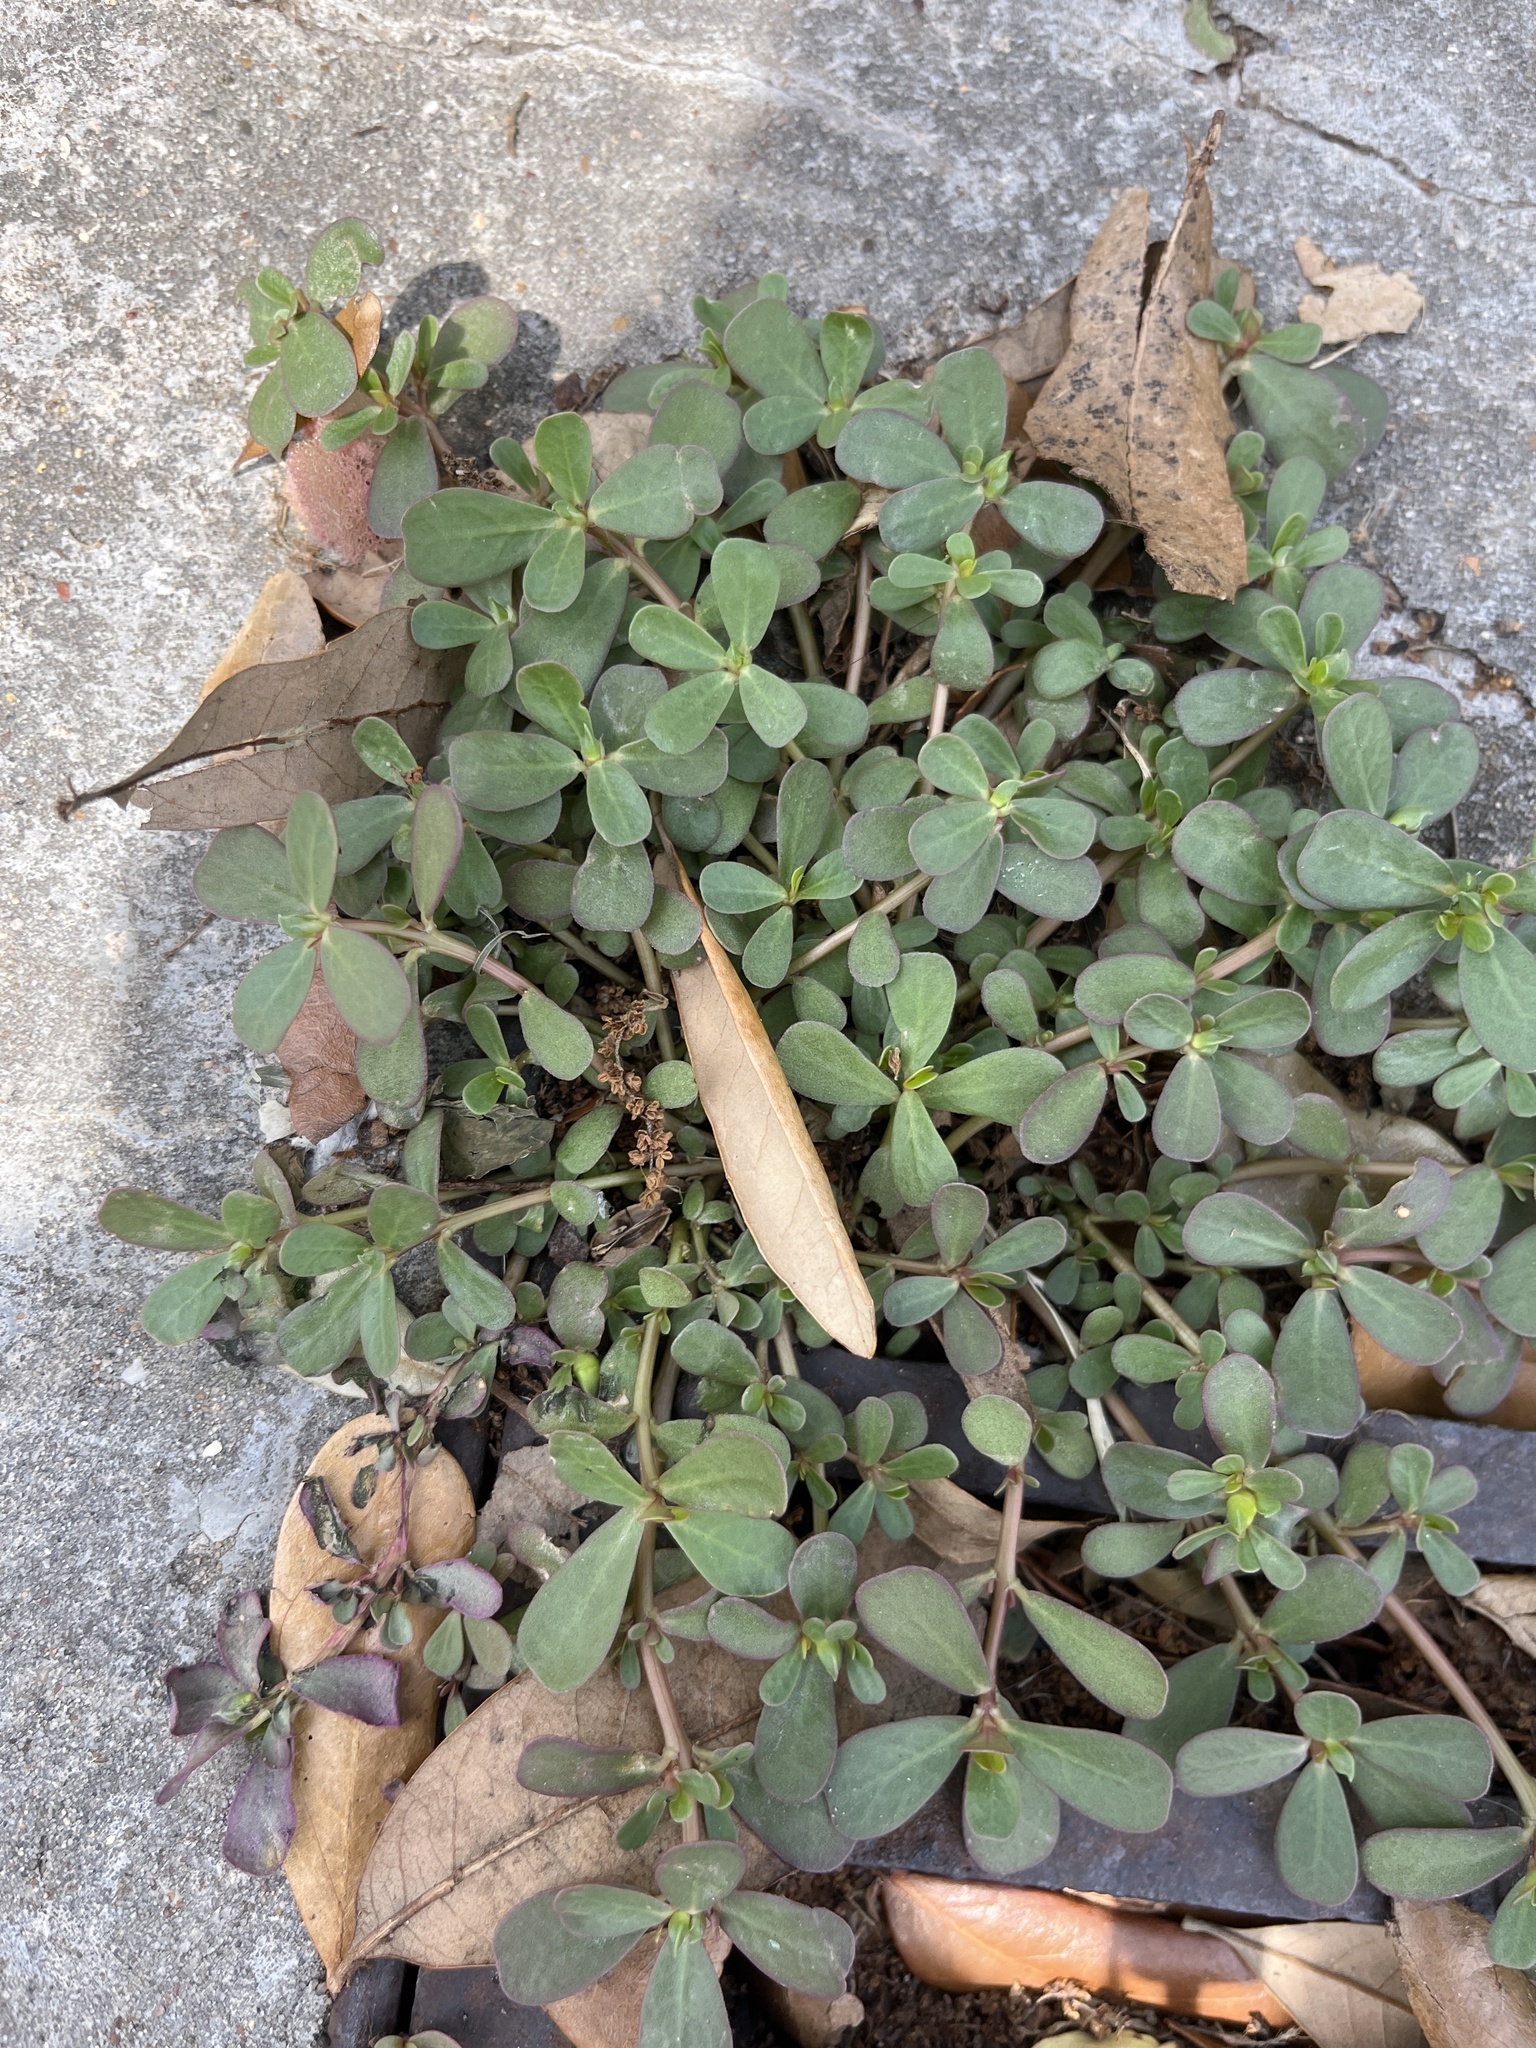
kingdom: Plantae
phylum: Tracheophyta
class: Magnoliopsida
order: Caryophyllales
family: Portulacaceae
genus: Portulaca
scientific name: Portulaca oleracea
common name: Common purslane
